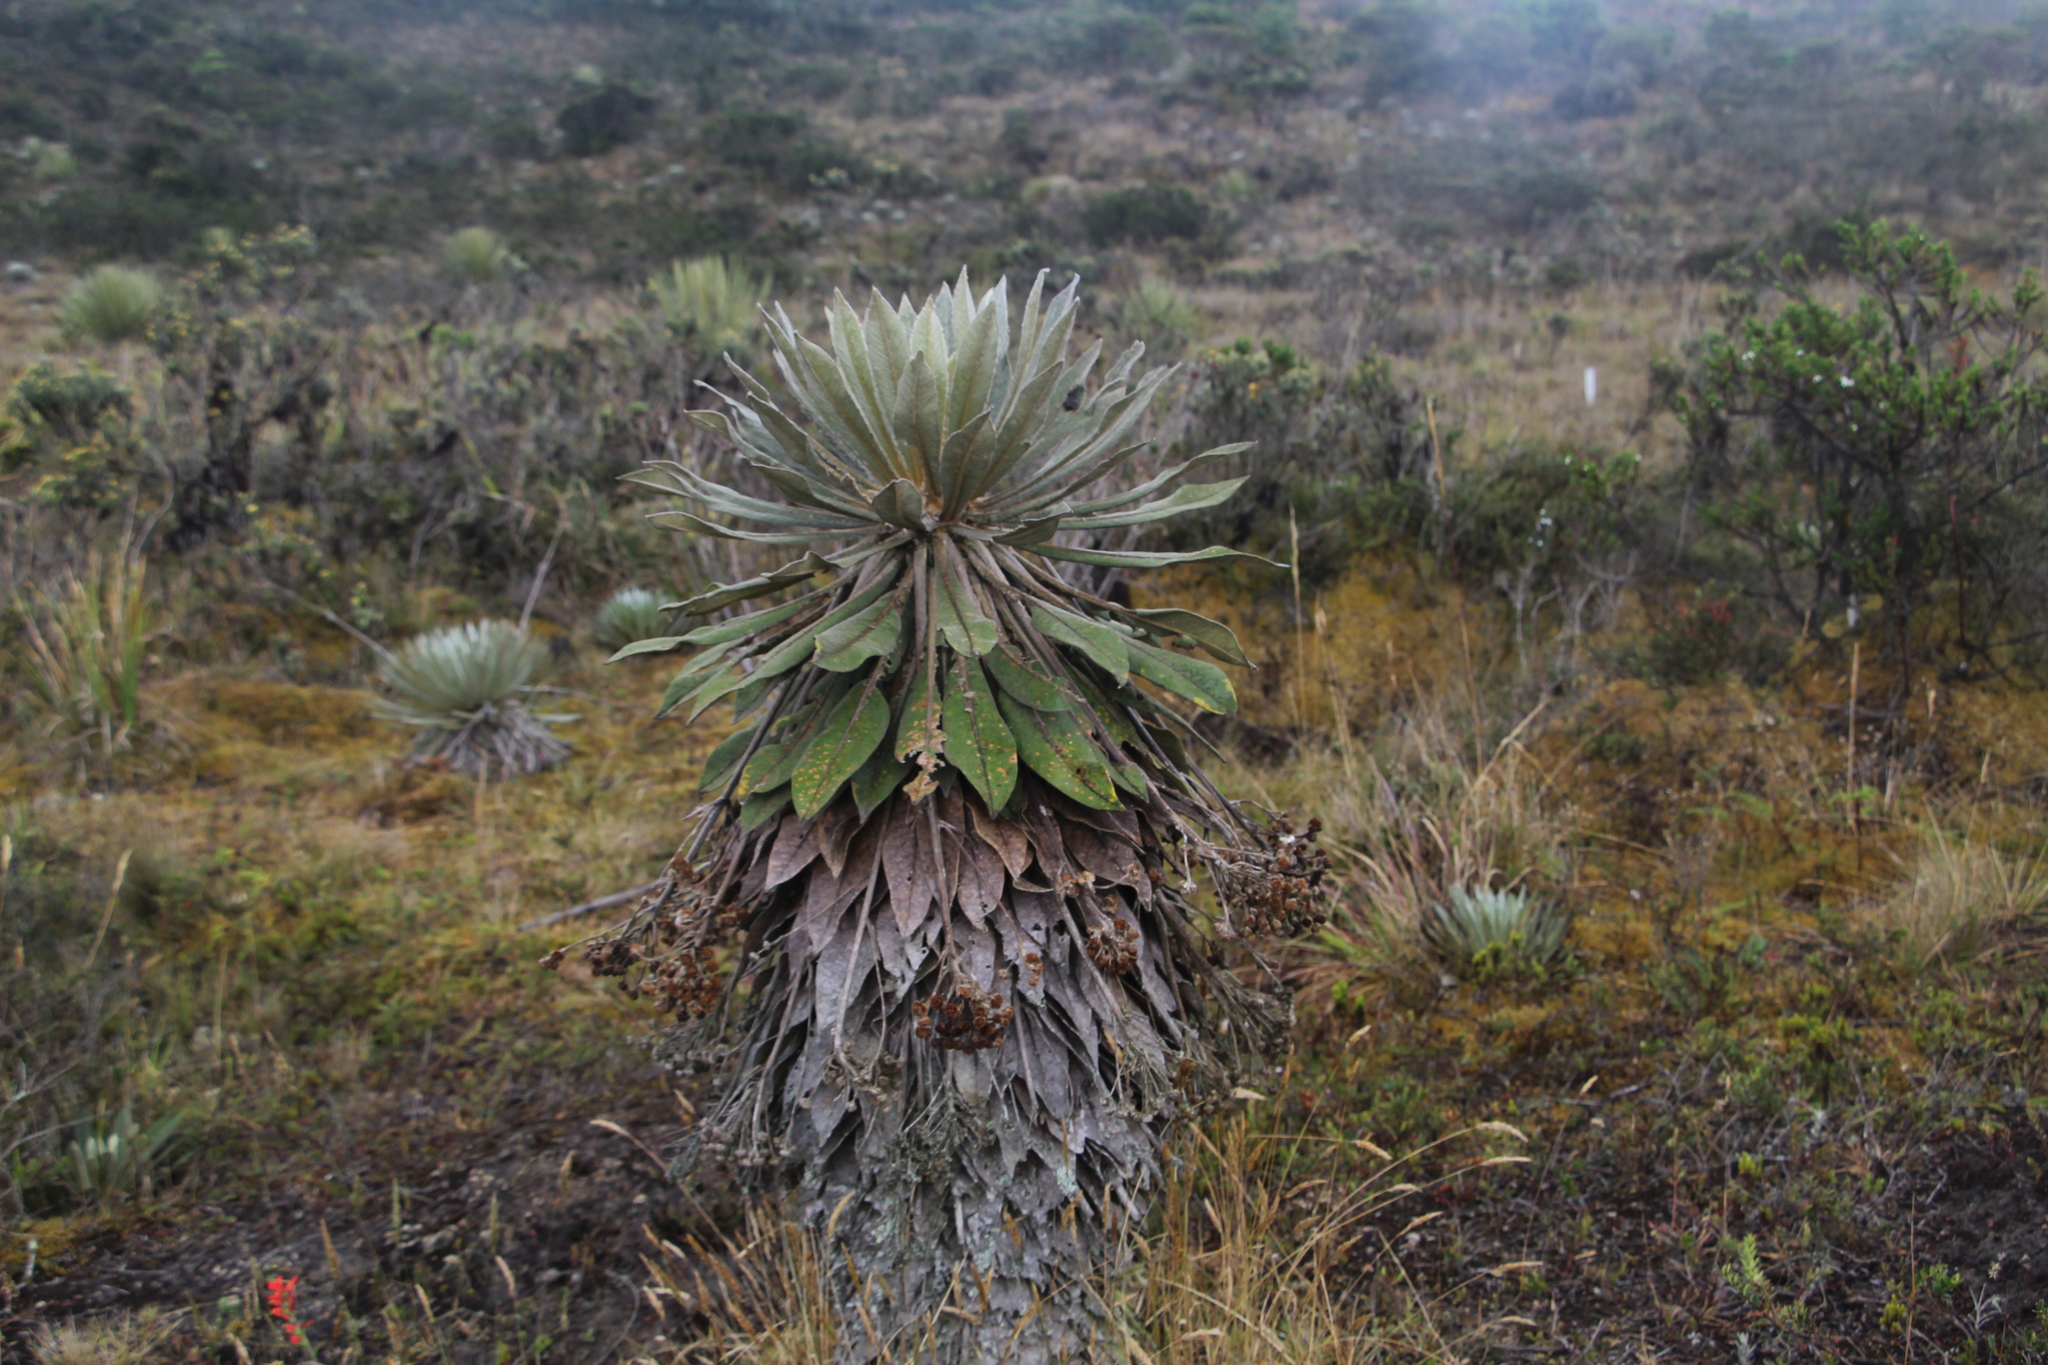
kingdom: Plantae
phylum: Tracheophyta
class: Magnoliopsida
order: Asterales
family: Asteraceae
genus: Espeletia
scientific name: Espeletia corymbosa
